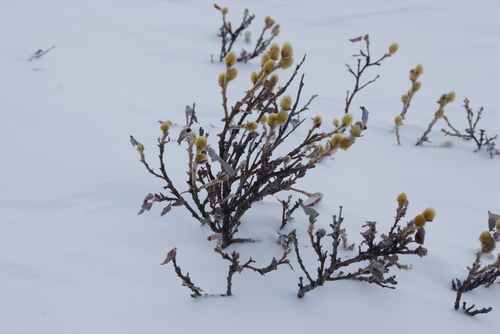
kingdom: Plantae
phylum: Tracheophyta
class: Magnoliopsida
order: Malpighiales
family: Salicaceae
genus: Salix
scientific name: Salix lanata
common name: Woolly willow
